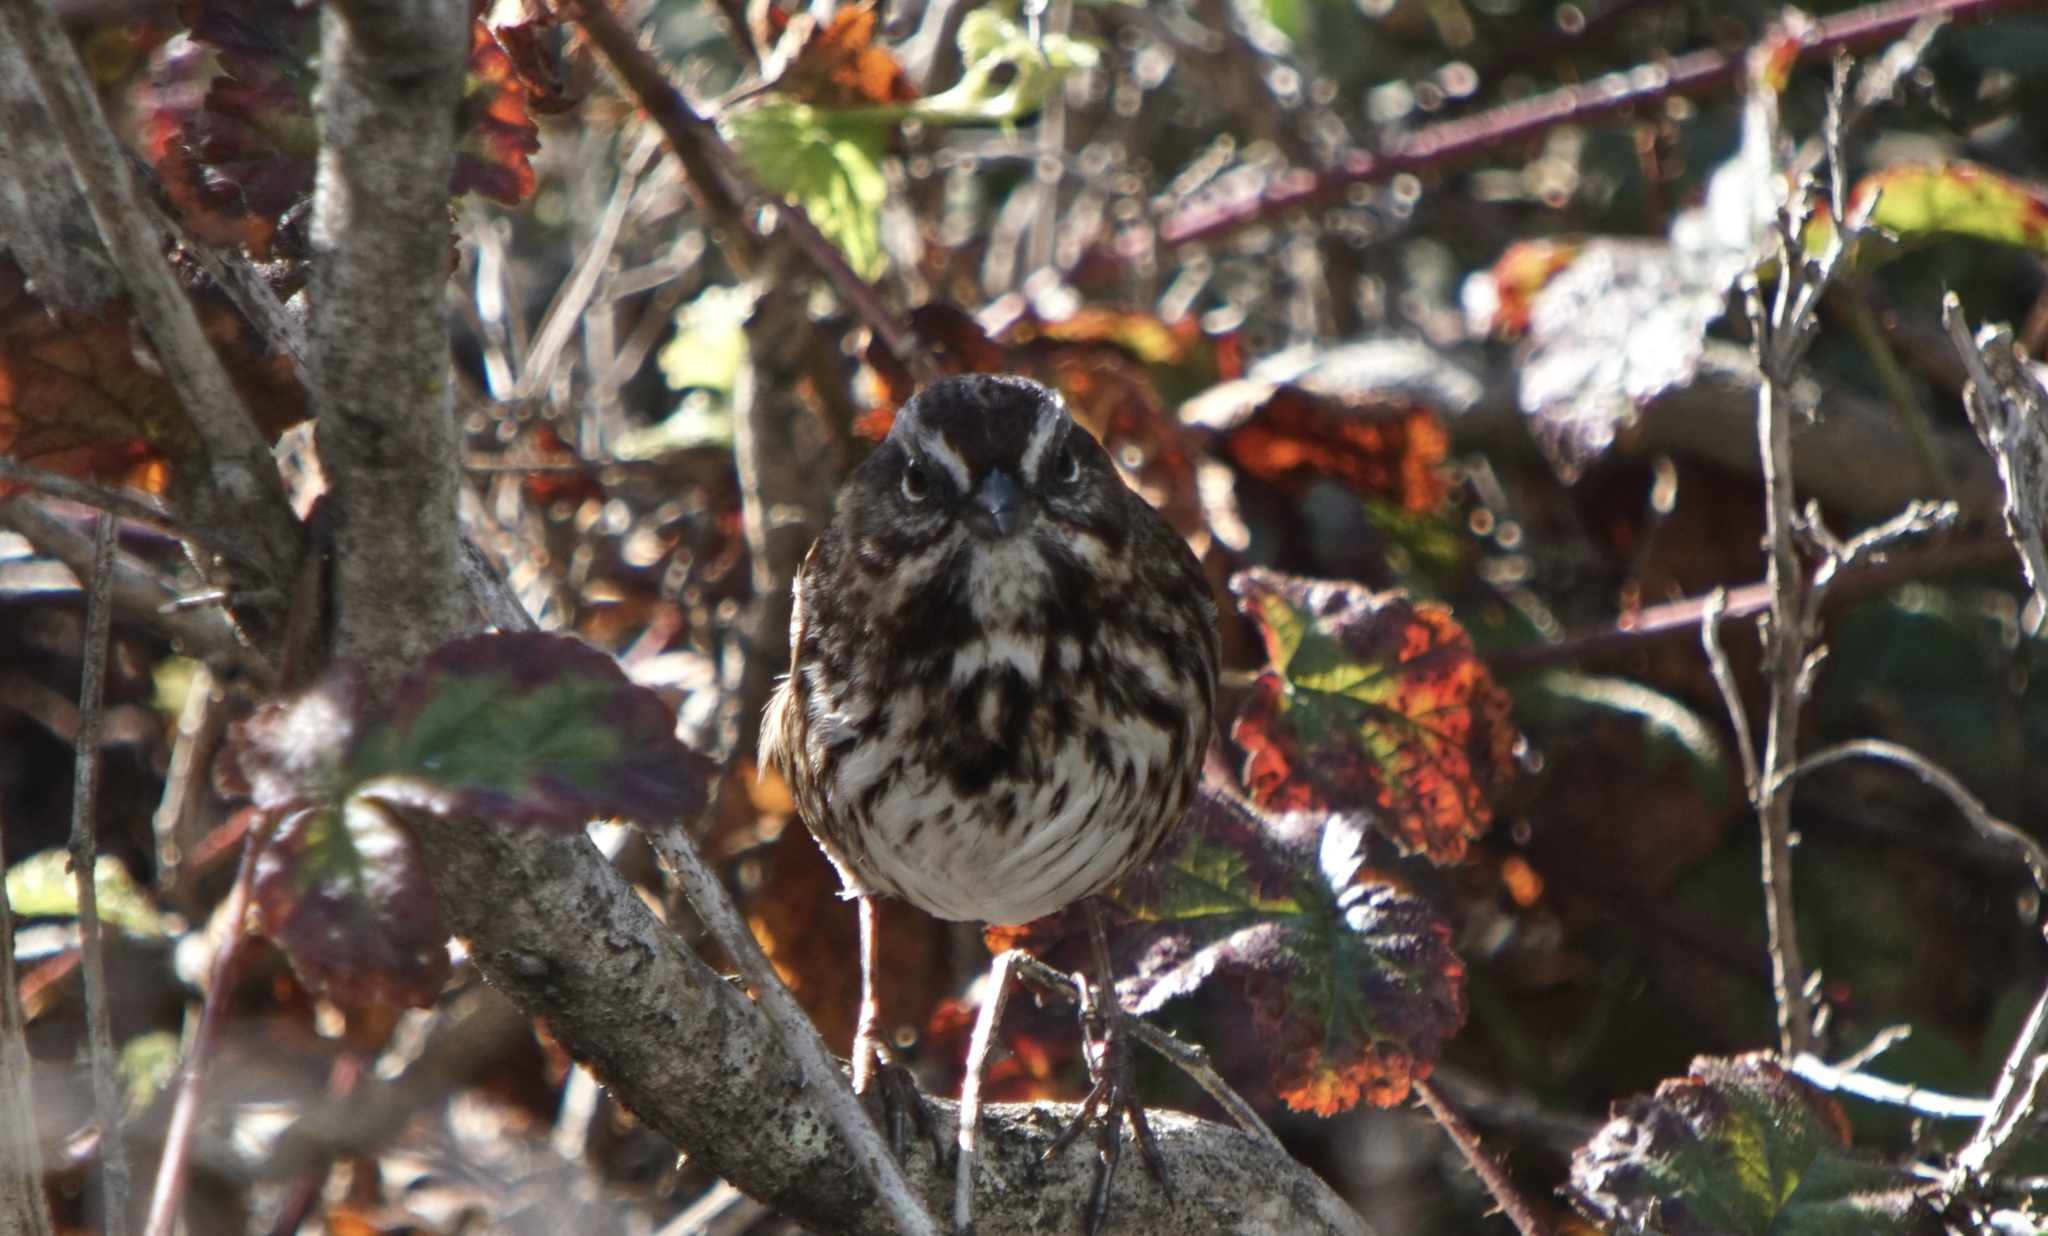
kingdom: Animalia
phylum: Chordata
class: Aves
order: Passeriformes
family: Passerellidae
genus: Melospiza
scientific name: Melospiza melodia
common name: Song sparrow
